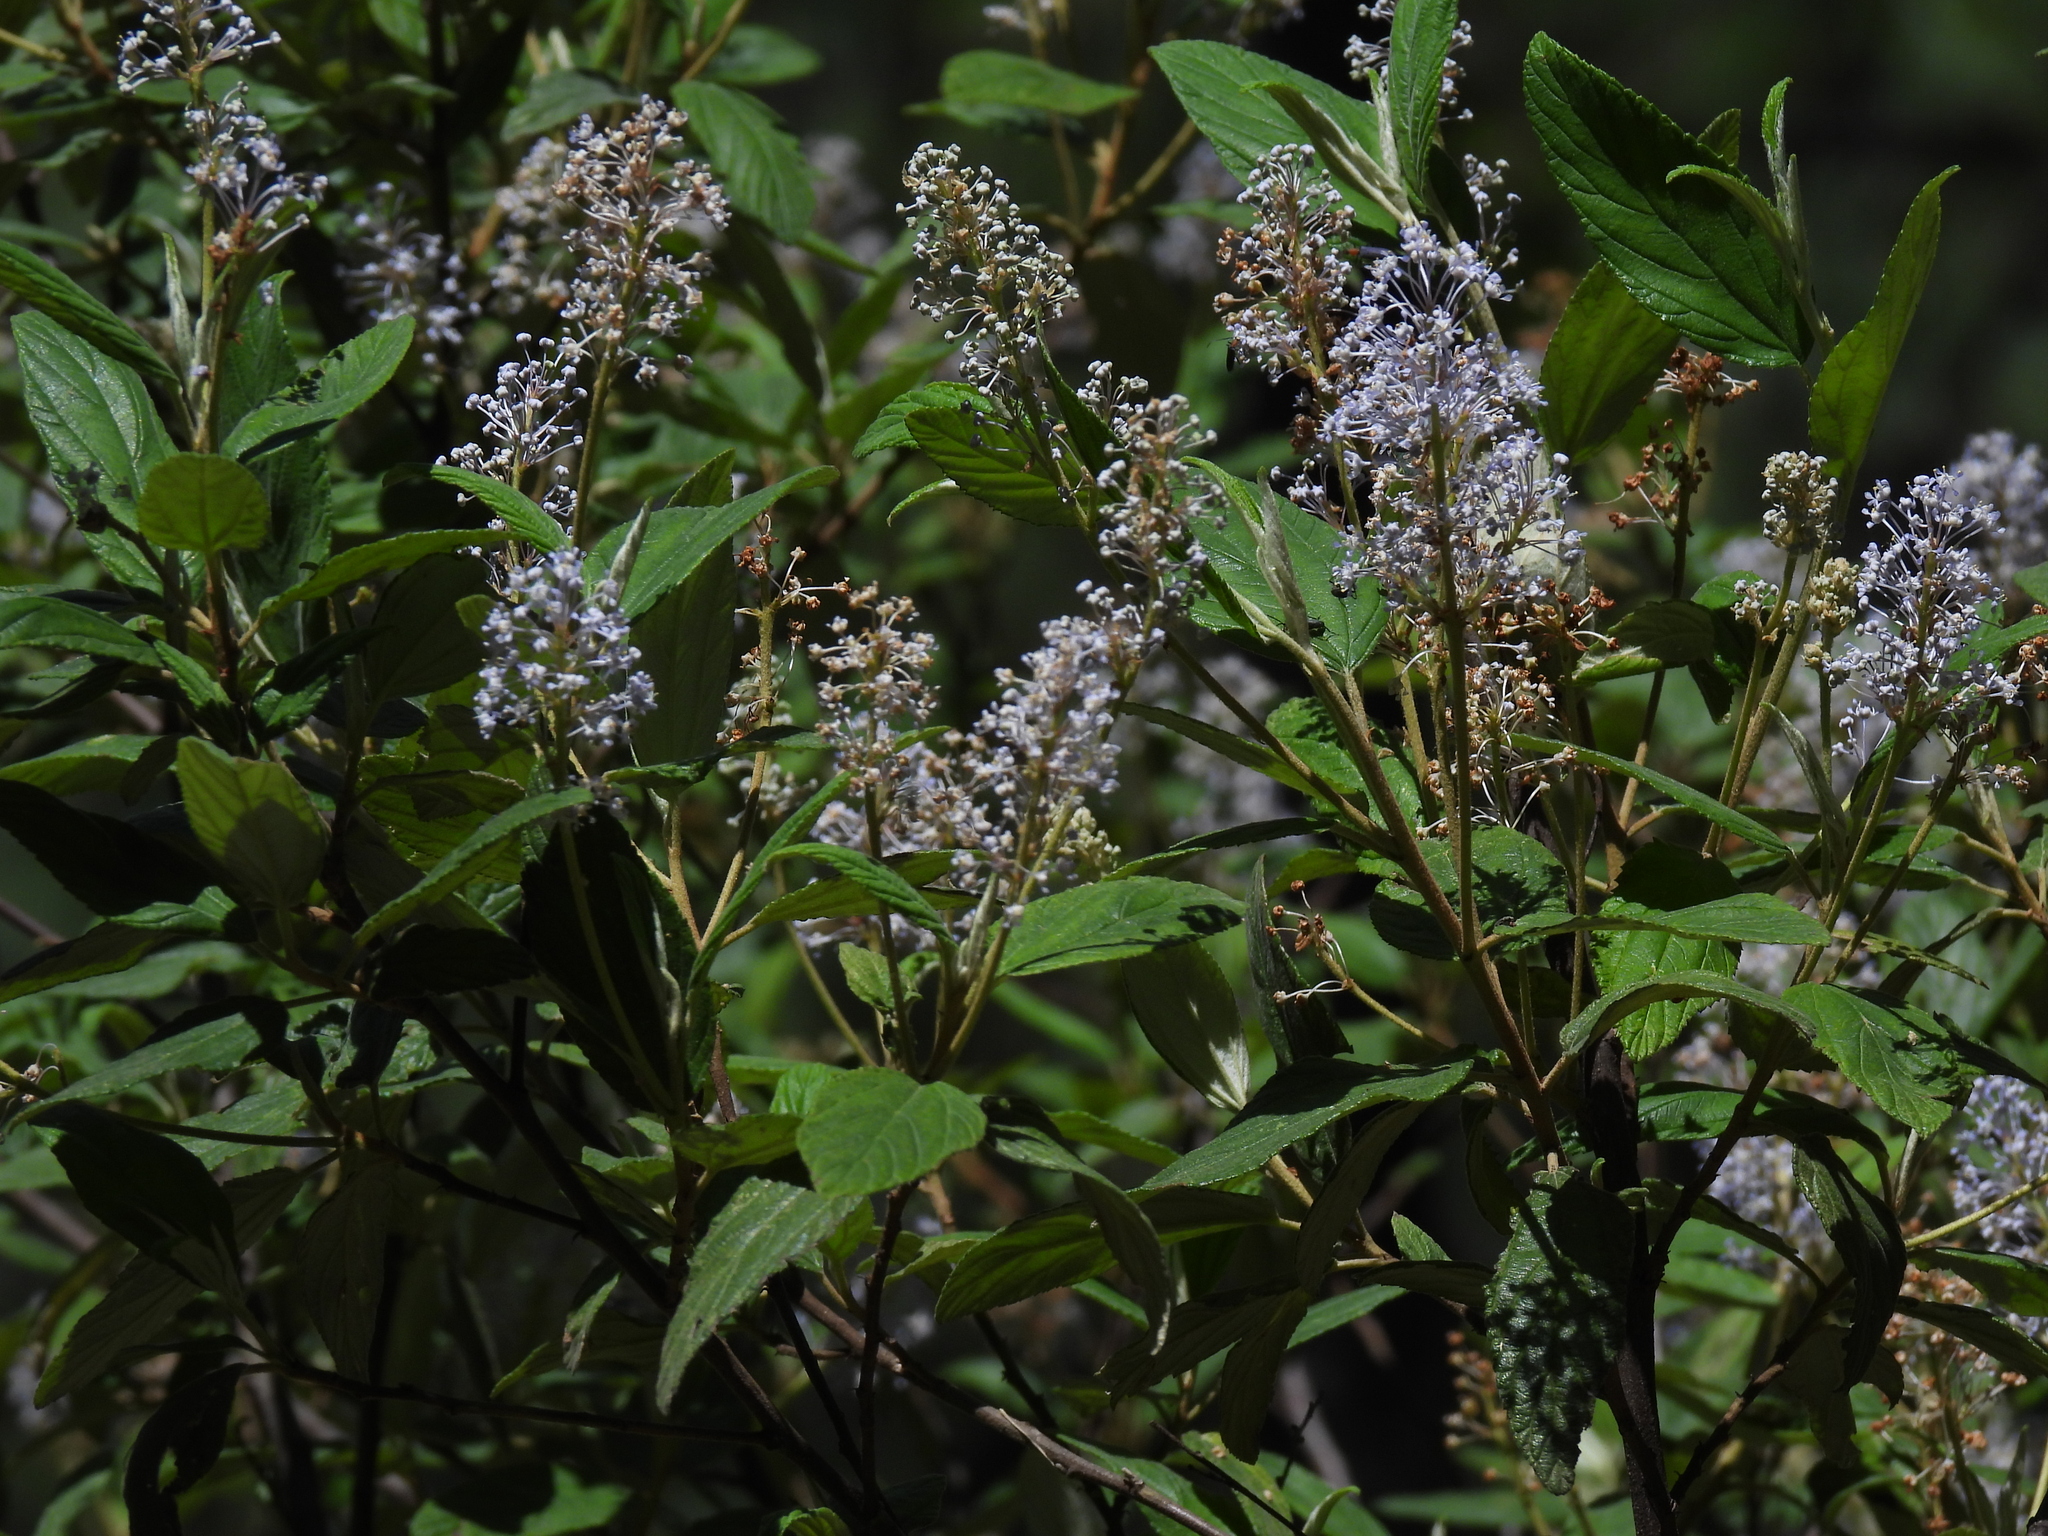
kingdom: Plantae
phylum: Tracheophyta
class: Magnoliopsida
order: Rosales
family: Rhamnaceae
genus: Ceanothus
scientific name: Ceanothus caeruleus
